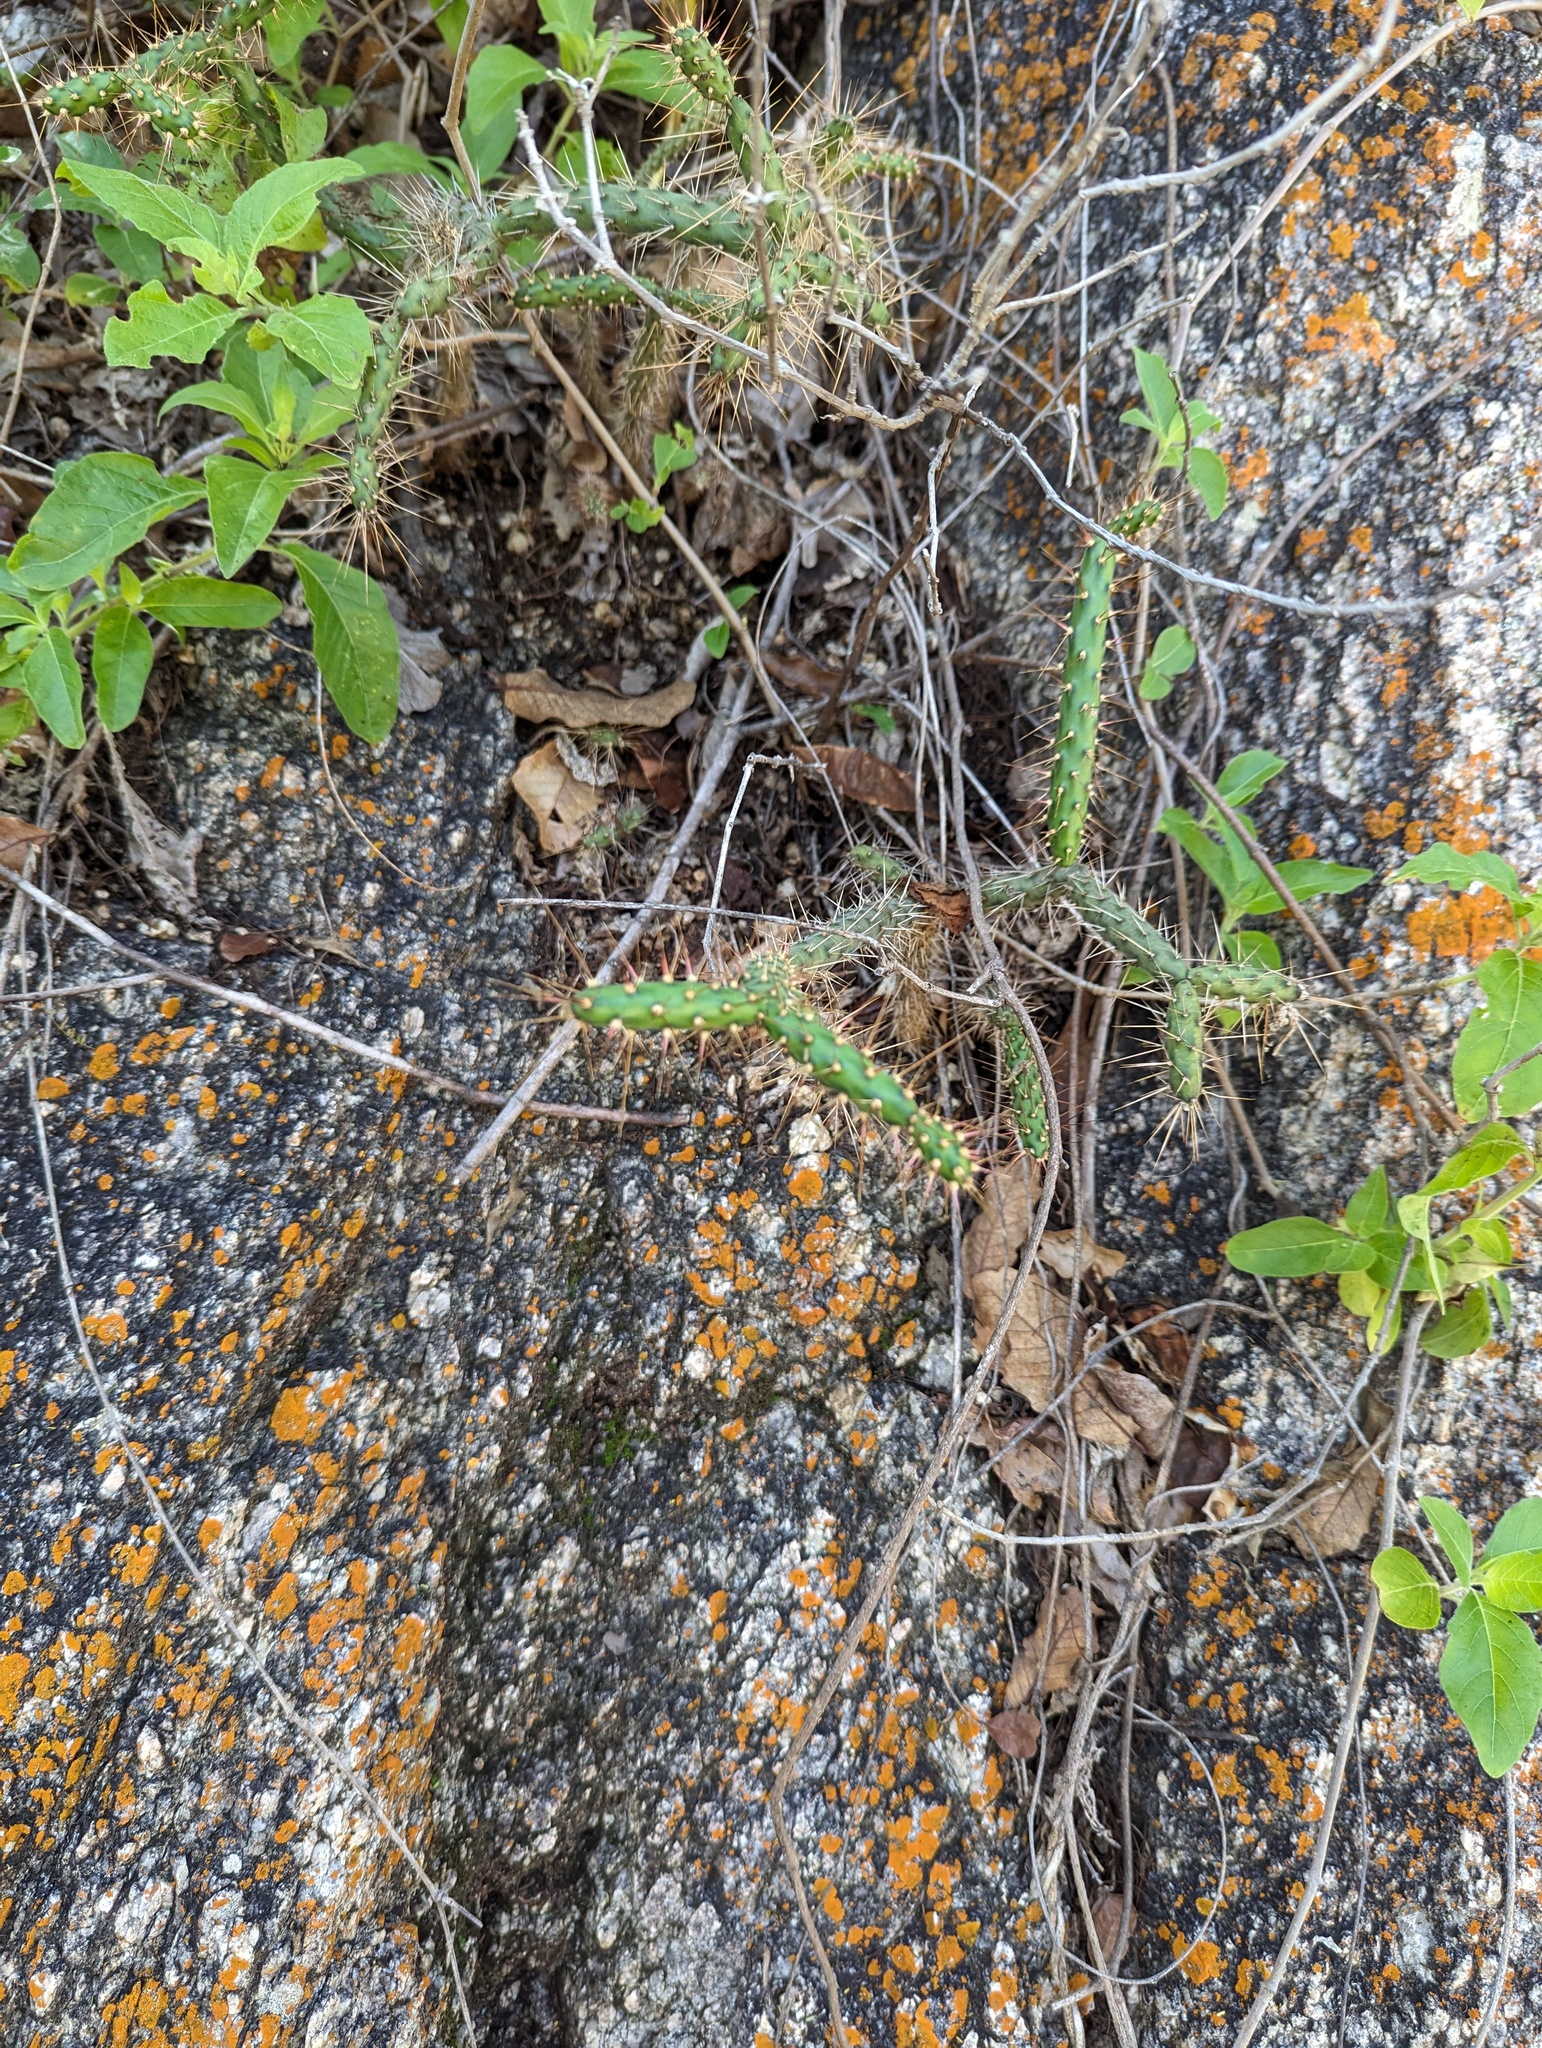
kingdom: Plantae
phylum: Tracheophyta
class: Magnoliopsida
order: Caryophyllales
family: Cactaceae
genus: Opuntia
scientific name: Opuntia pubescens
